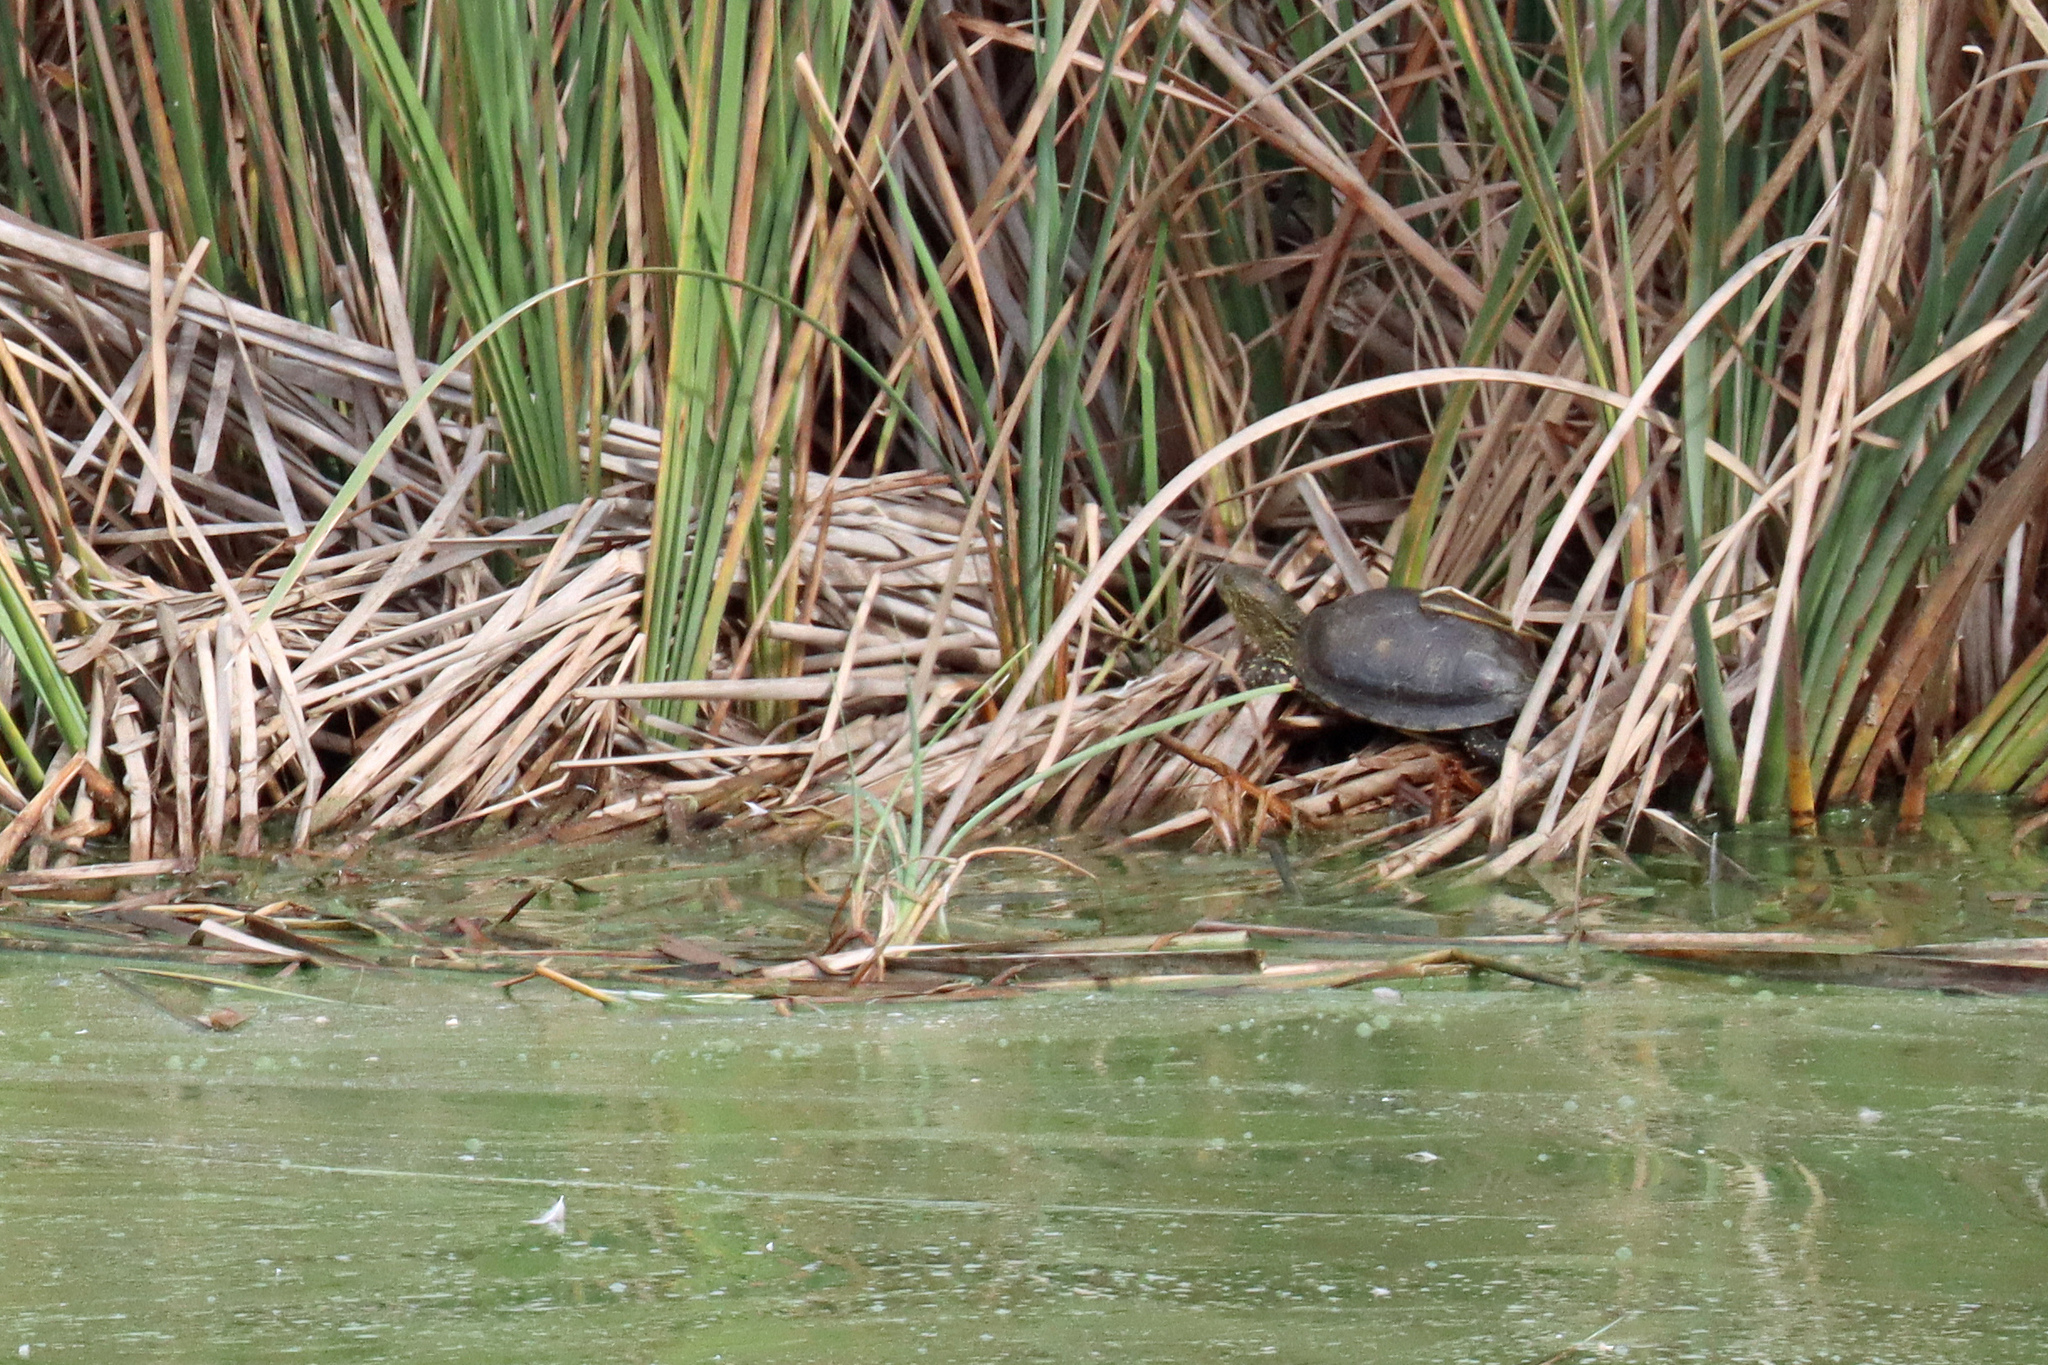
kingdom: Animalia
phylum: Chordata
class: Testudines
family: Geoemydidae
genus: Mauremys
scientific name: Mauremys leprosa
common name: Mediterranean pond turtle
